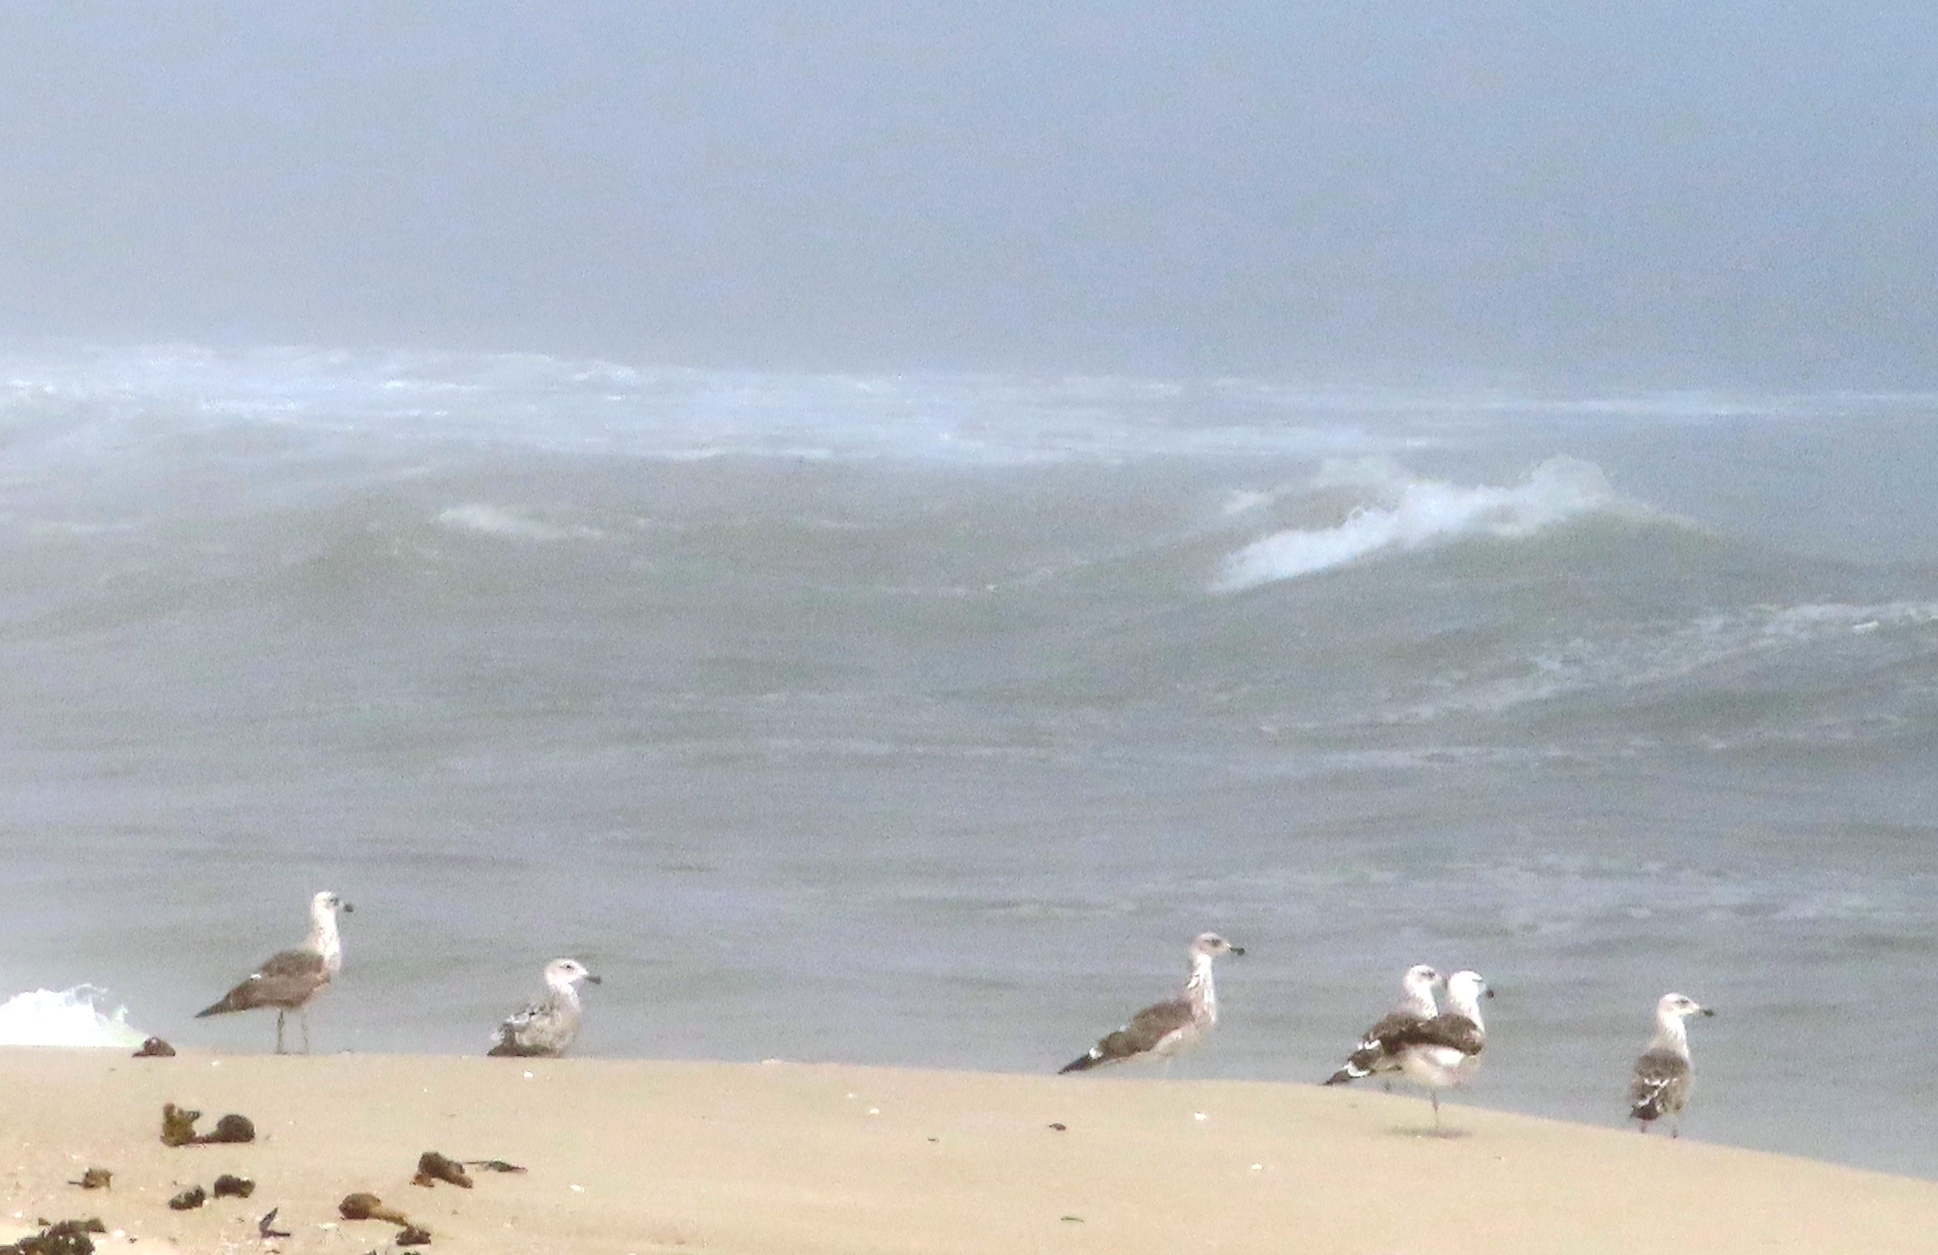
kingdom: Animalia
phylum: Chordata
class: Aves
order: Charadriiformes
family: Laridae
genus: Larus
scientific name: Larus dominicanus
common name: Kelp gull
